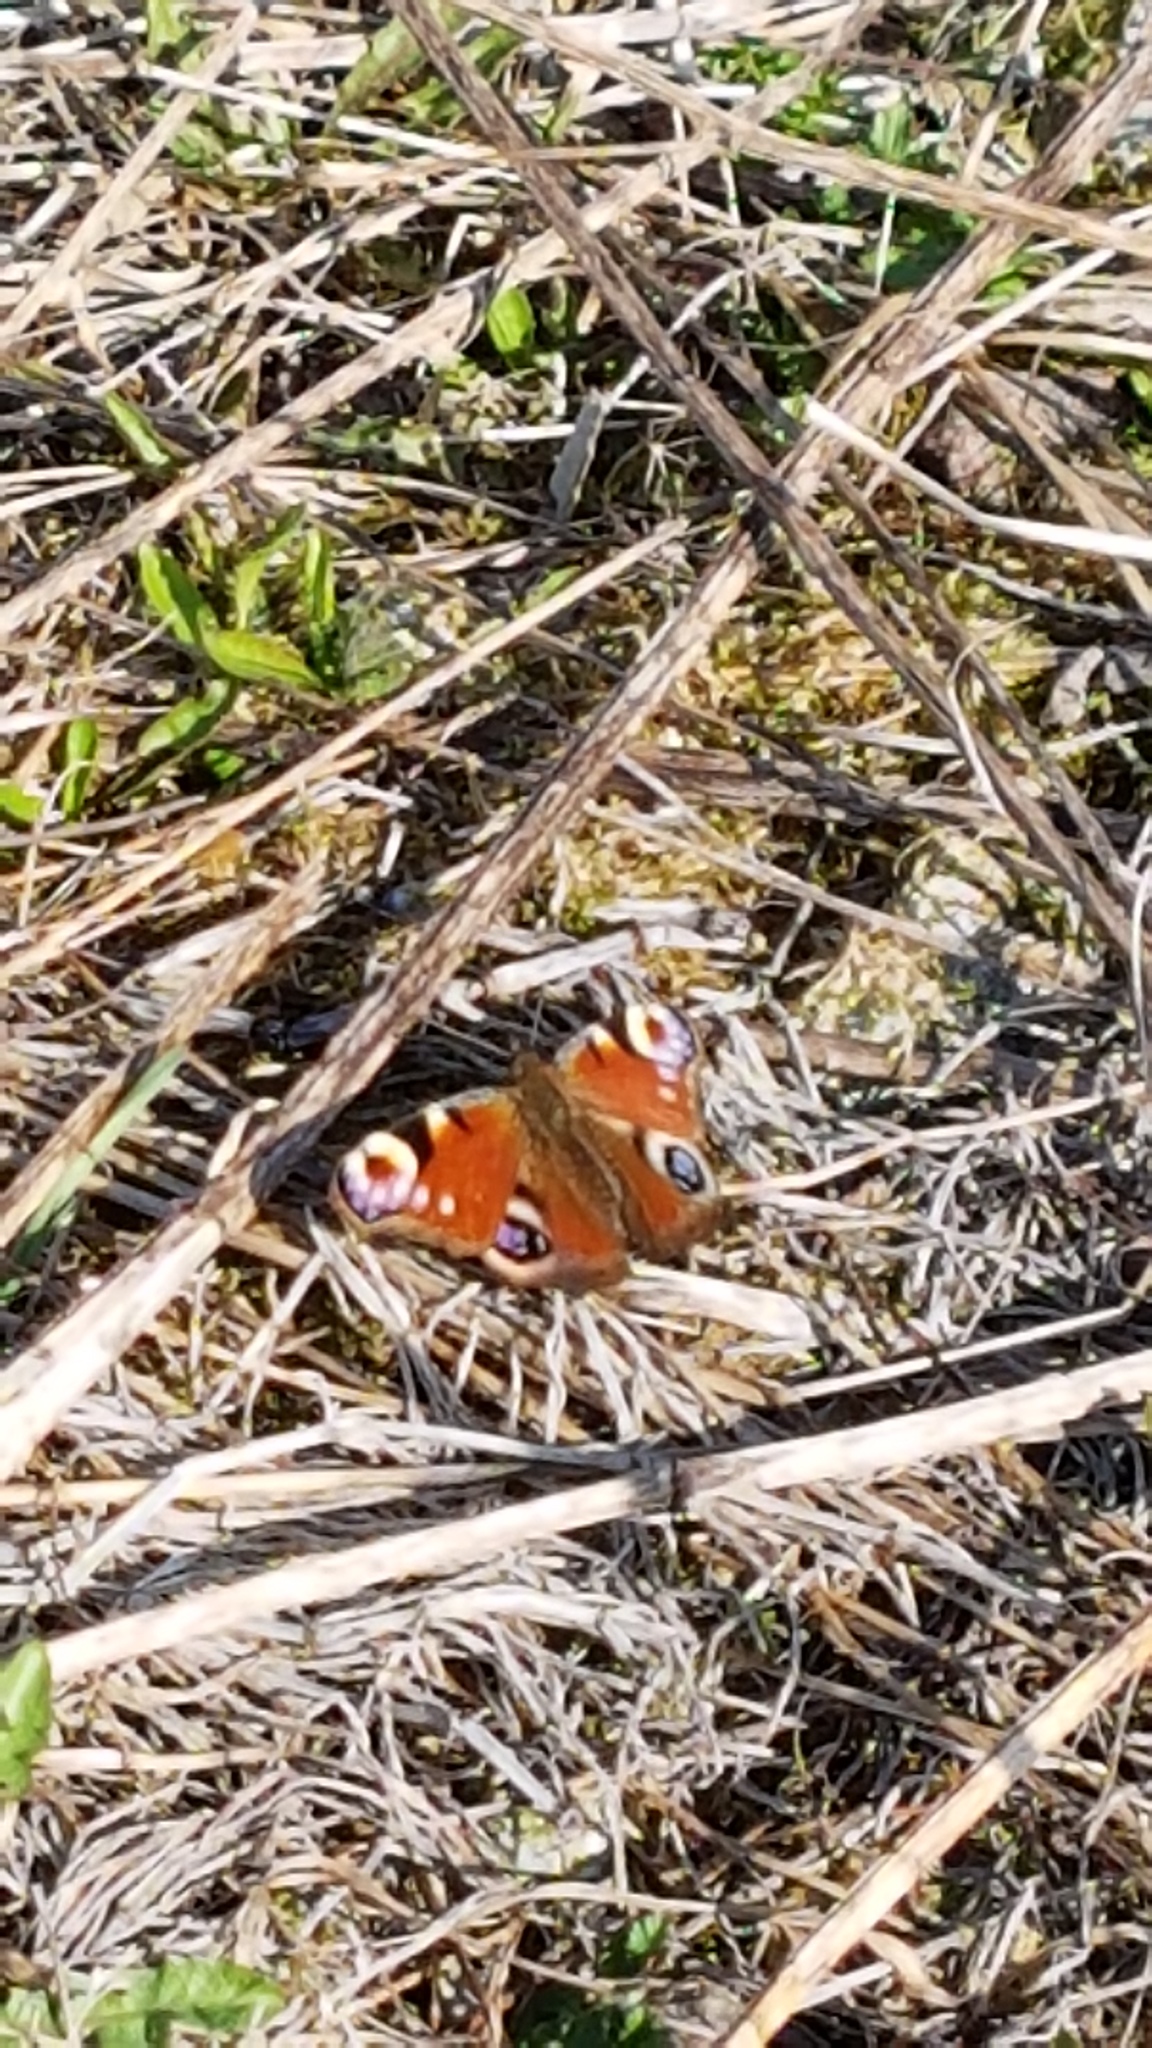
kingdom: Animalia
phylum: Arthropoda
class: Insecta
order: Lepidoptera
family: Nymphalidae
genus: Aglais
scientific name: Aglais io
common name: Peacock
